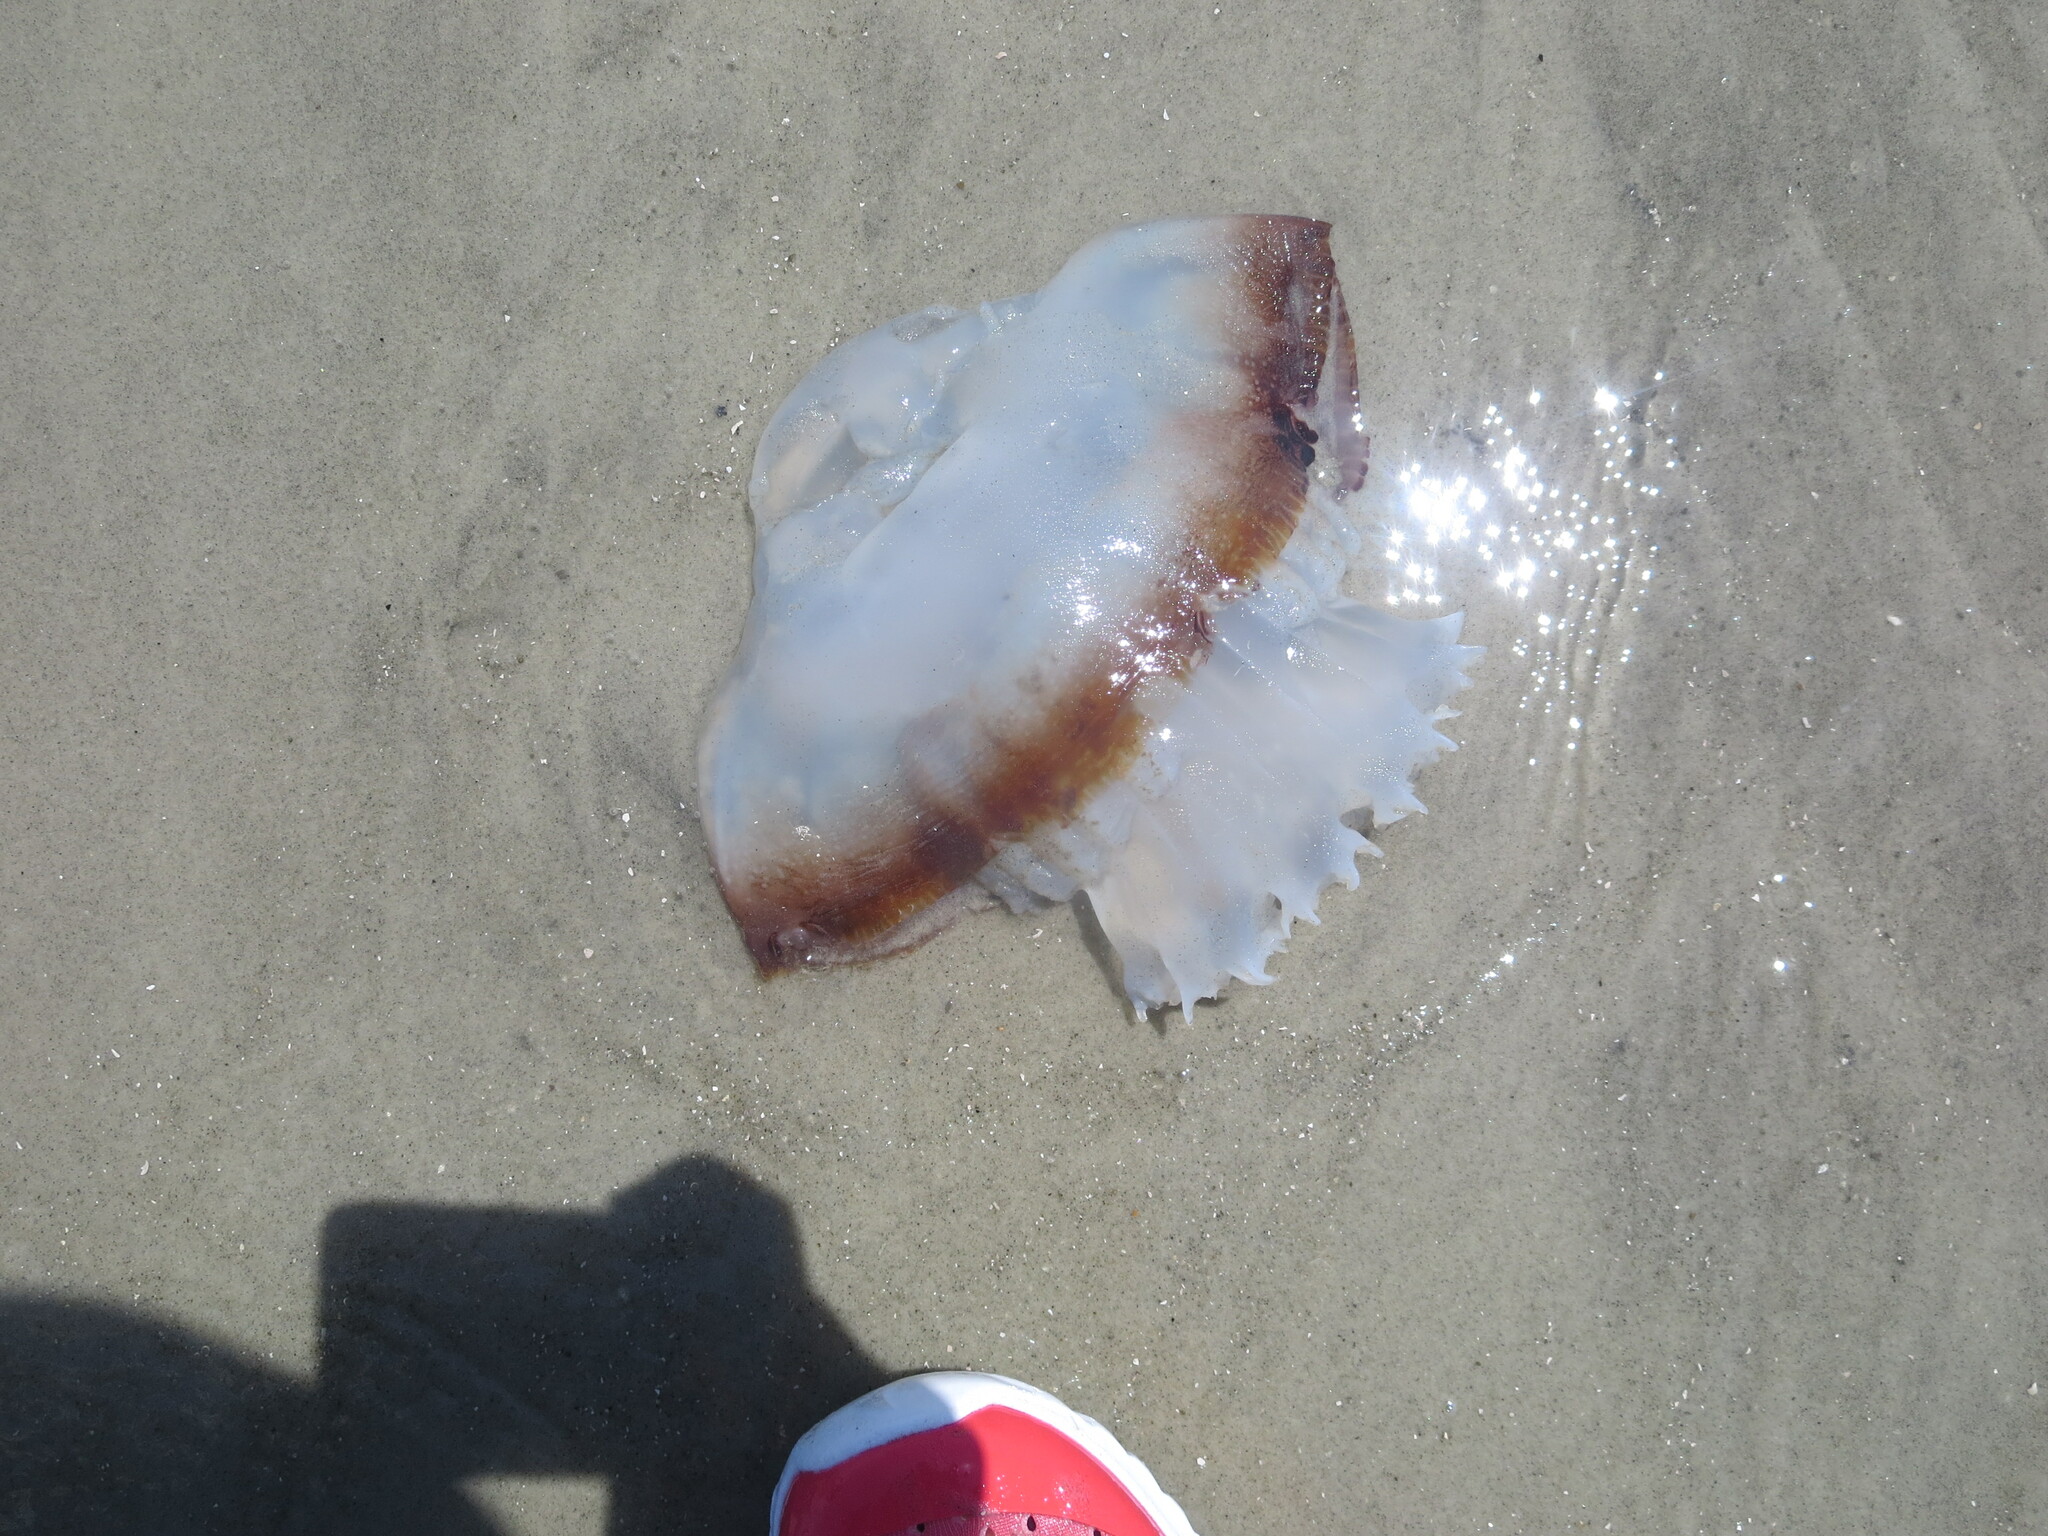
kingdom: Animalia
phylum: Cnidaria
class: Scyphozoa
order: Rhizostomeae
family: Stomolophidae
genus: Stomolophus
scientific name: Stomolophus meleagris
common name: Cabbagehead
